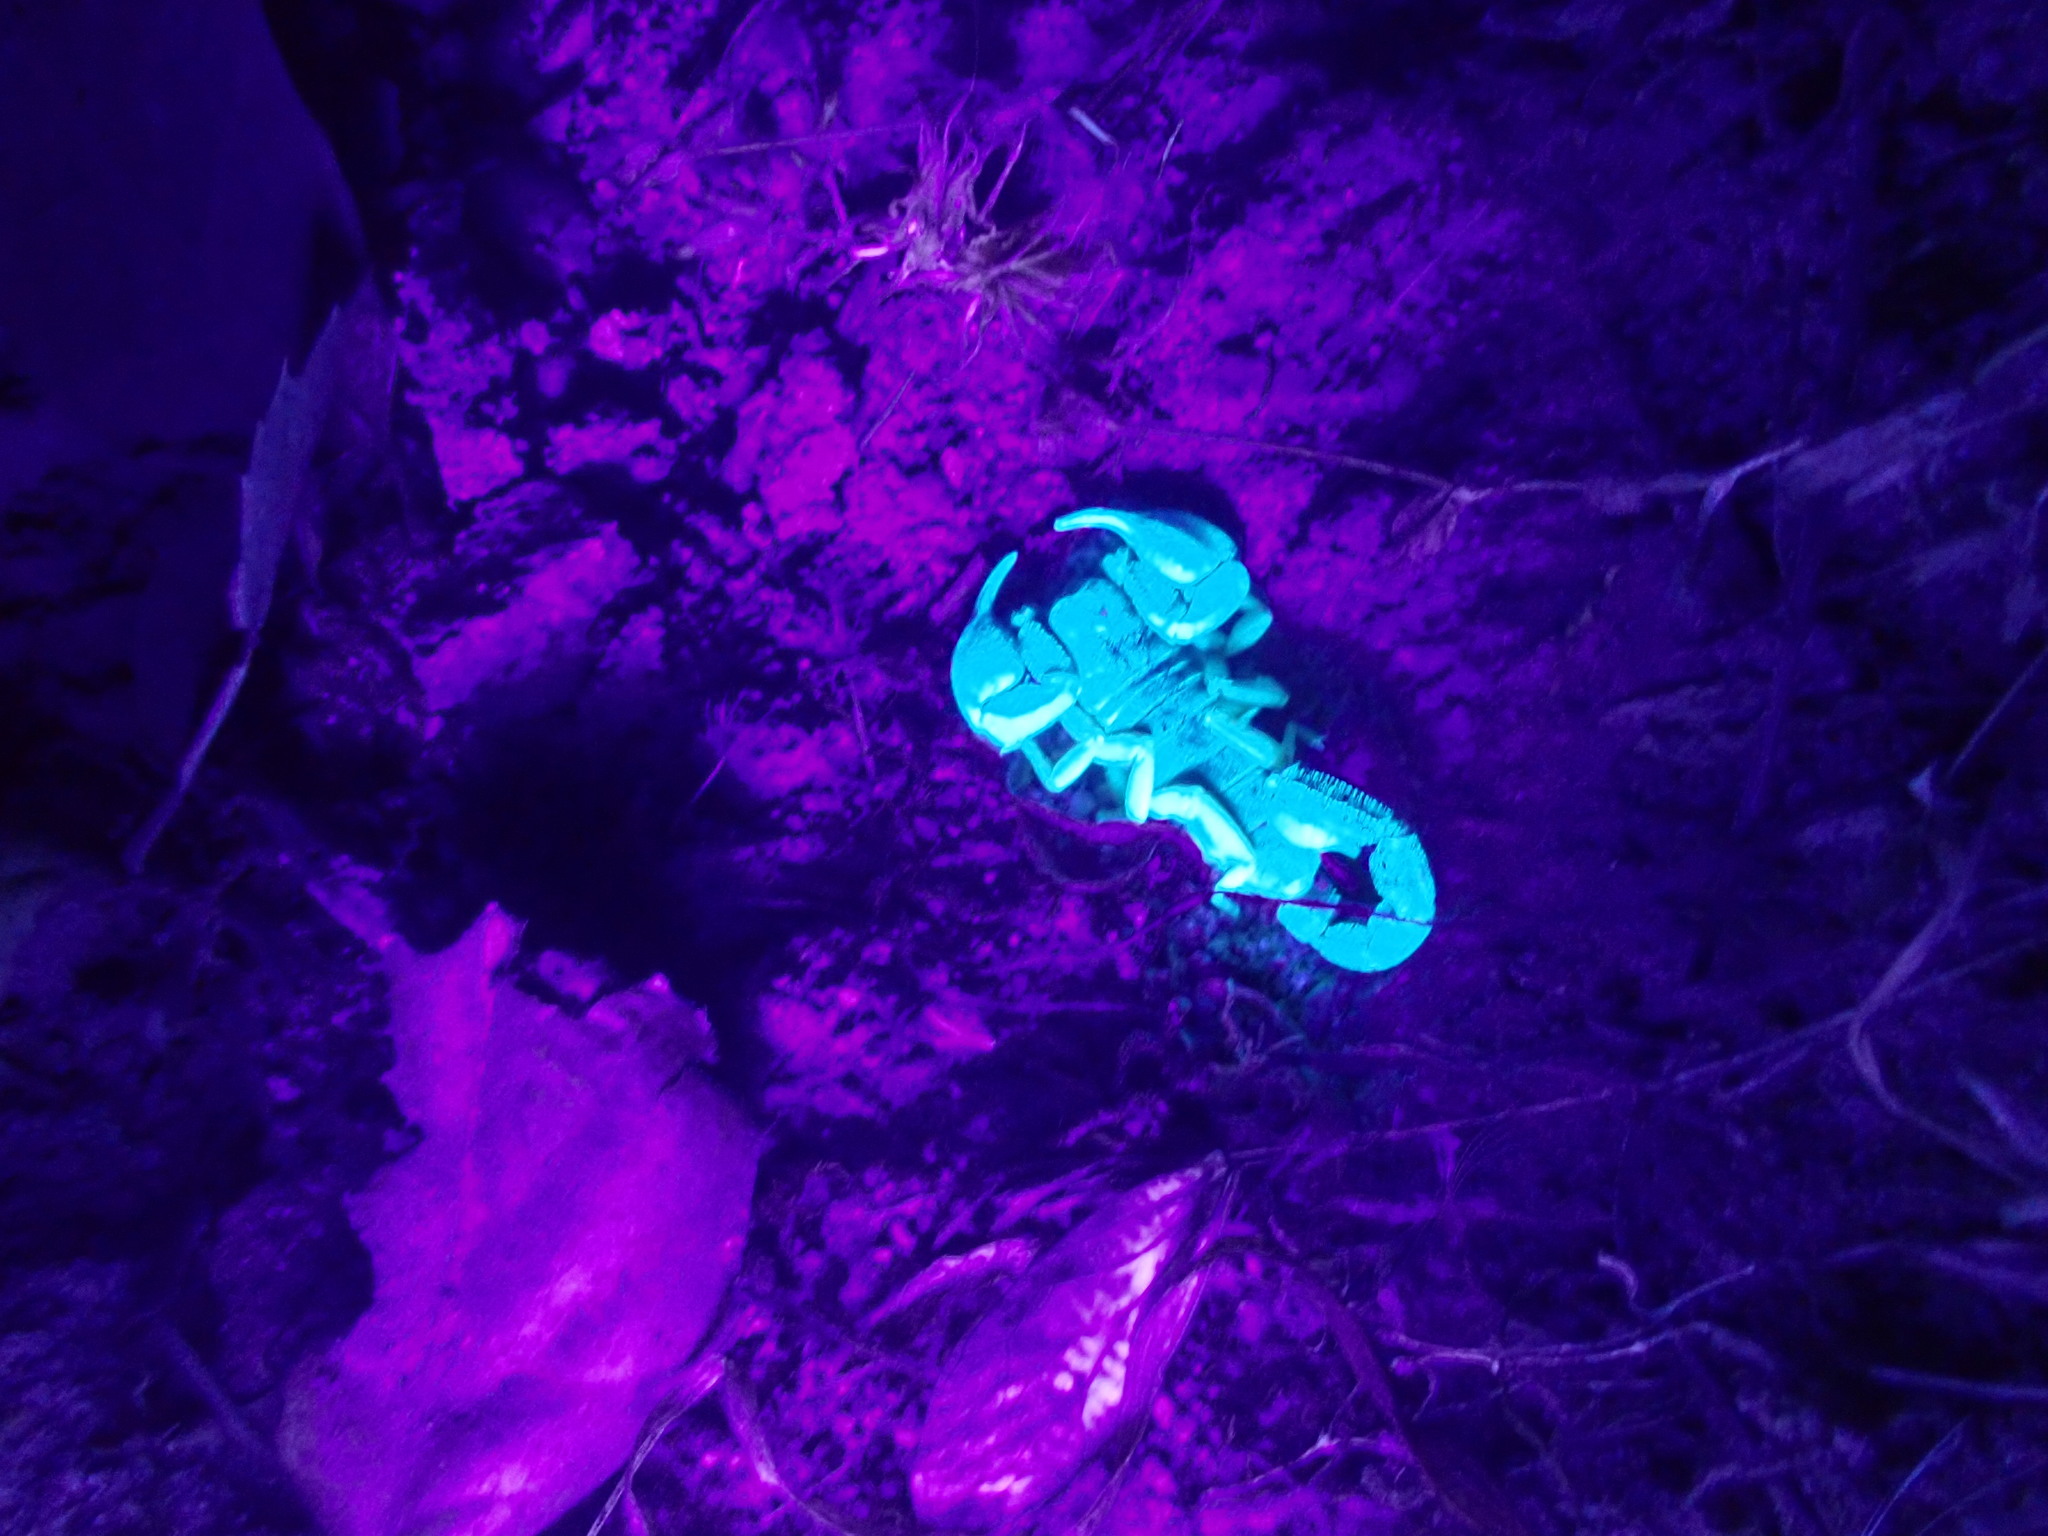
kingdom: Animalia
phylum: Arthropoda
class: Arachnida
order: Scorpiones
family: Chactidae
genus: Uroctonus
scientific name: Uroctonus mordax
